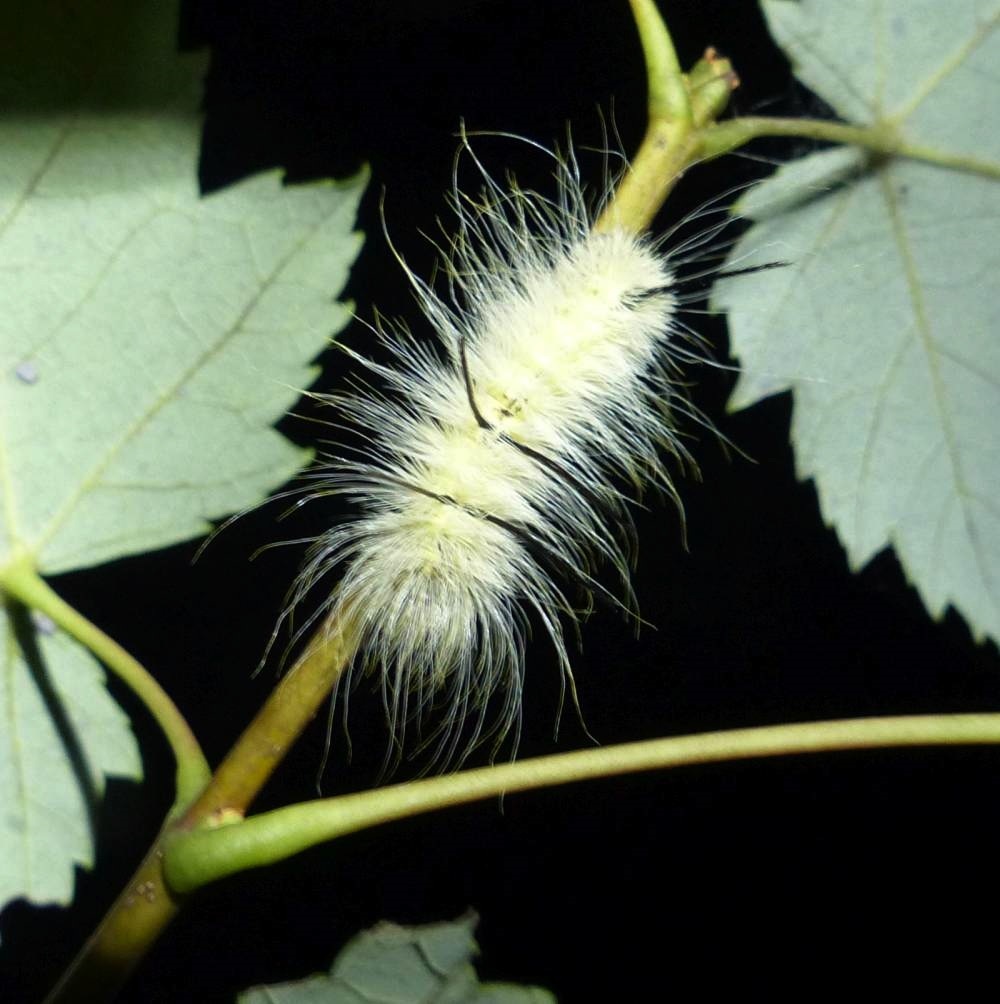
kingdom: Animalia
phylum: Arthropoda
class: Insecta
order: Lepidoptera
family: Noctuidae
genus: Acronicta
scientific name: Acronicta americana
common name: American dagger
